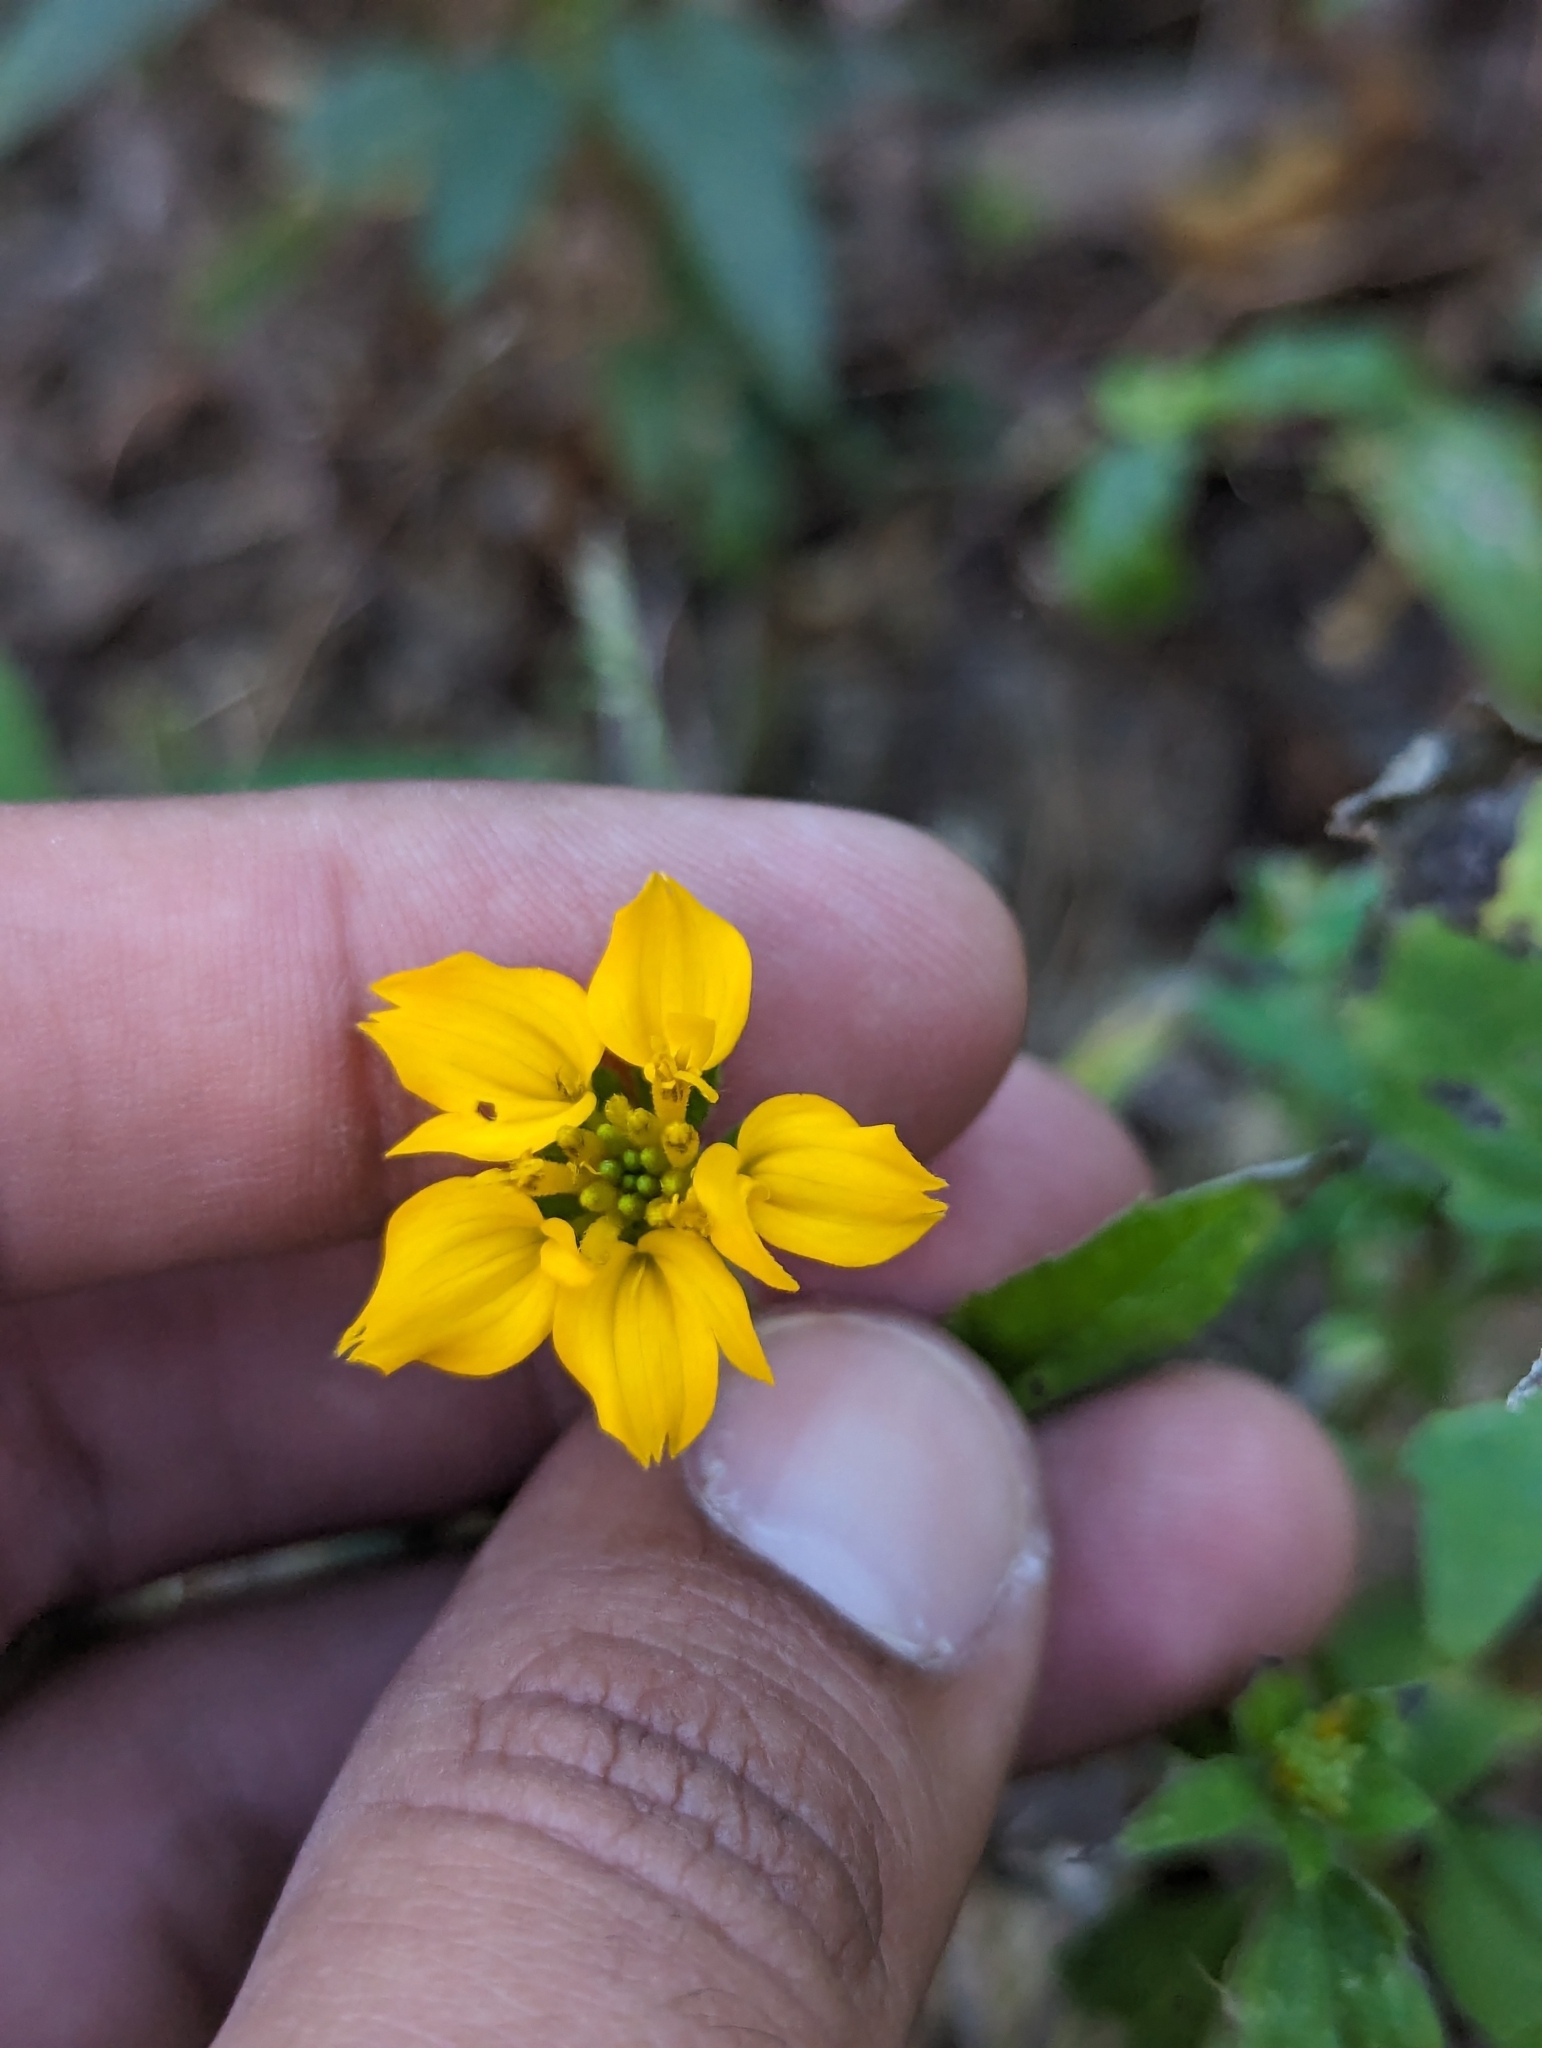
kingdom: Plantae
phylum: Tracheophyta
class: Magnoliopsida
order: Asterales
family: Asteraceae
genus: Sclerocarpus
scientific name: Sclerocarpus divaricatus
